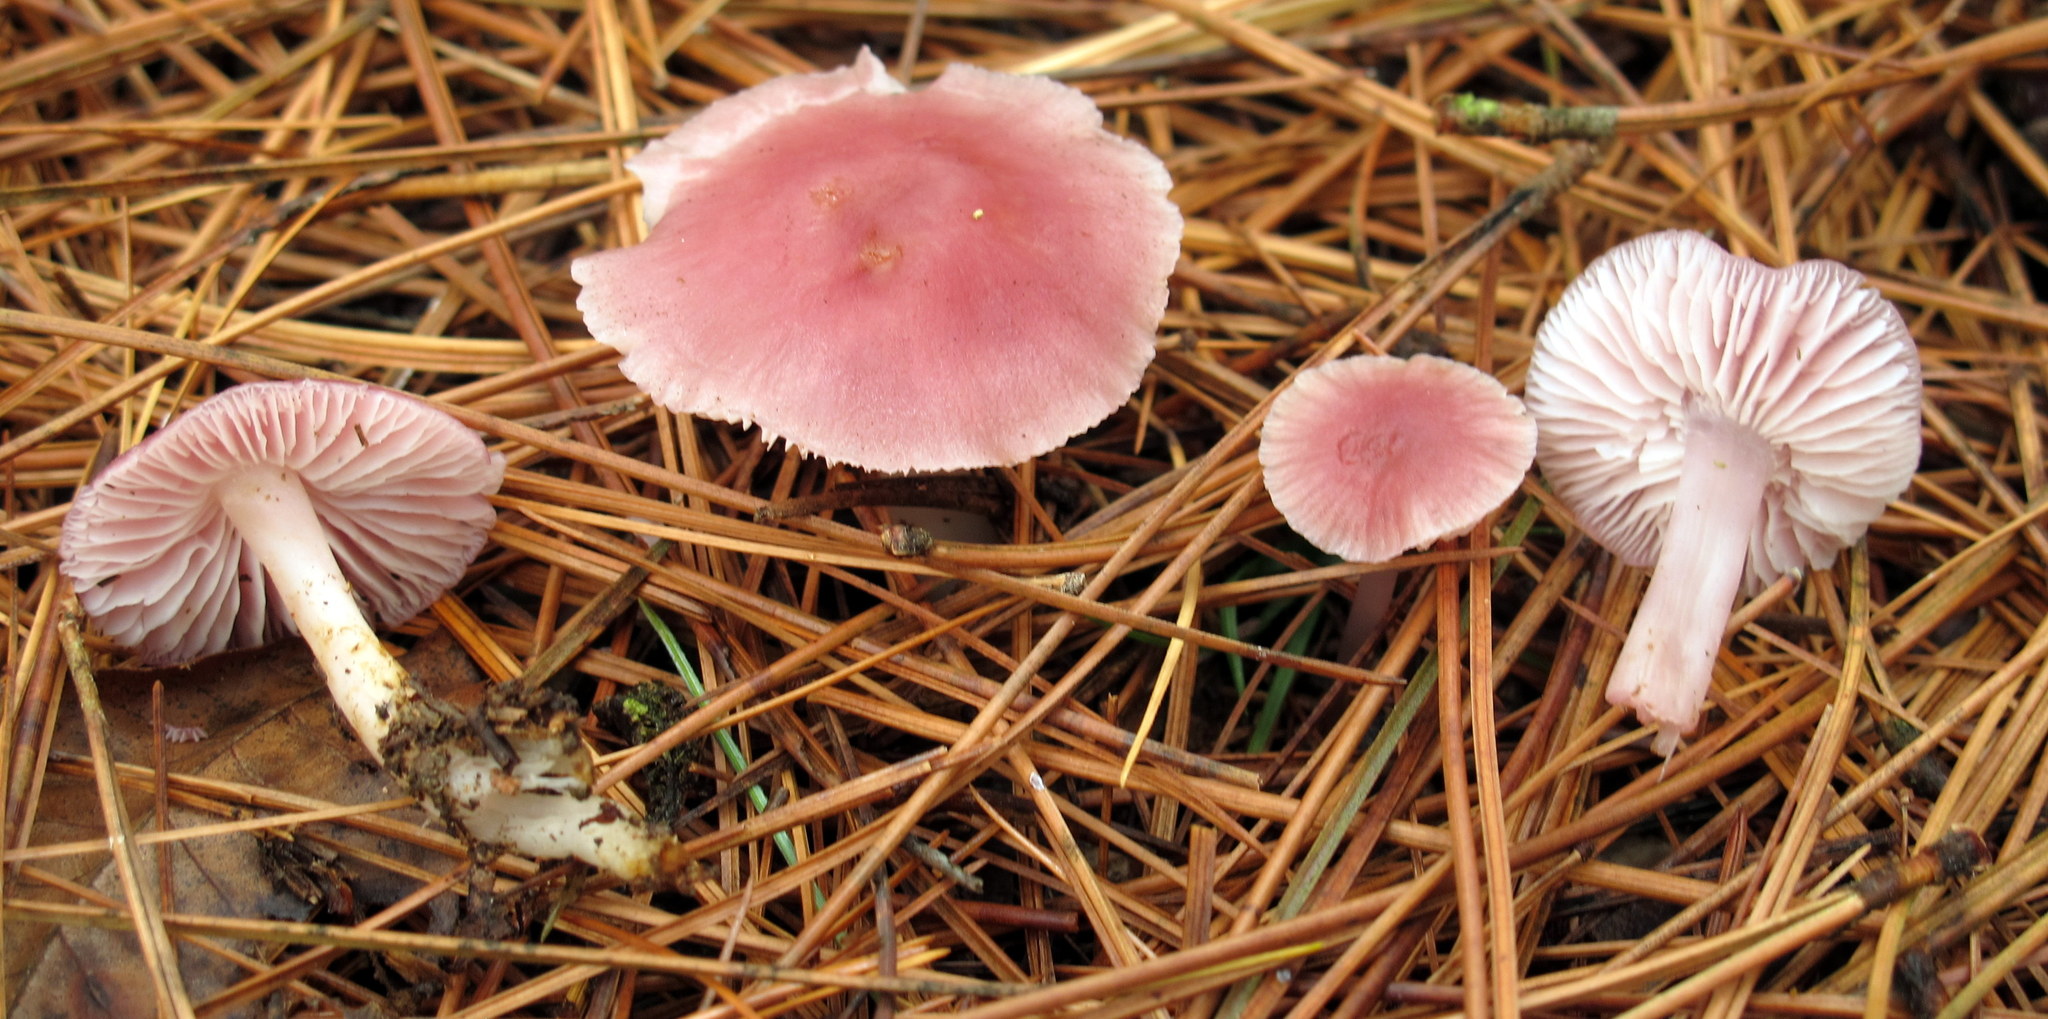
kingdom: Fungi
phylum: Basidiomycota
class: Agaricomycetes
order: Agaricales
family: Mycenaceae
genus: Mycena
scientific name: Mycena pura
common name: Lilac bonnet
